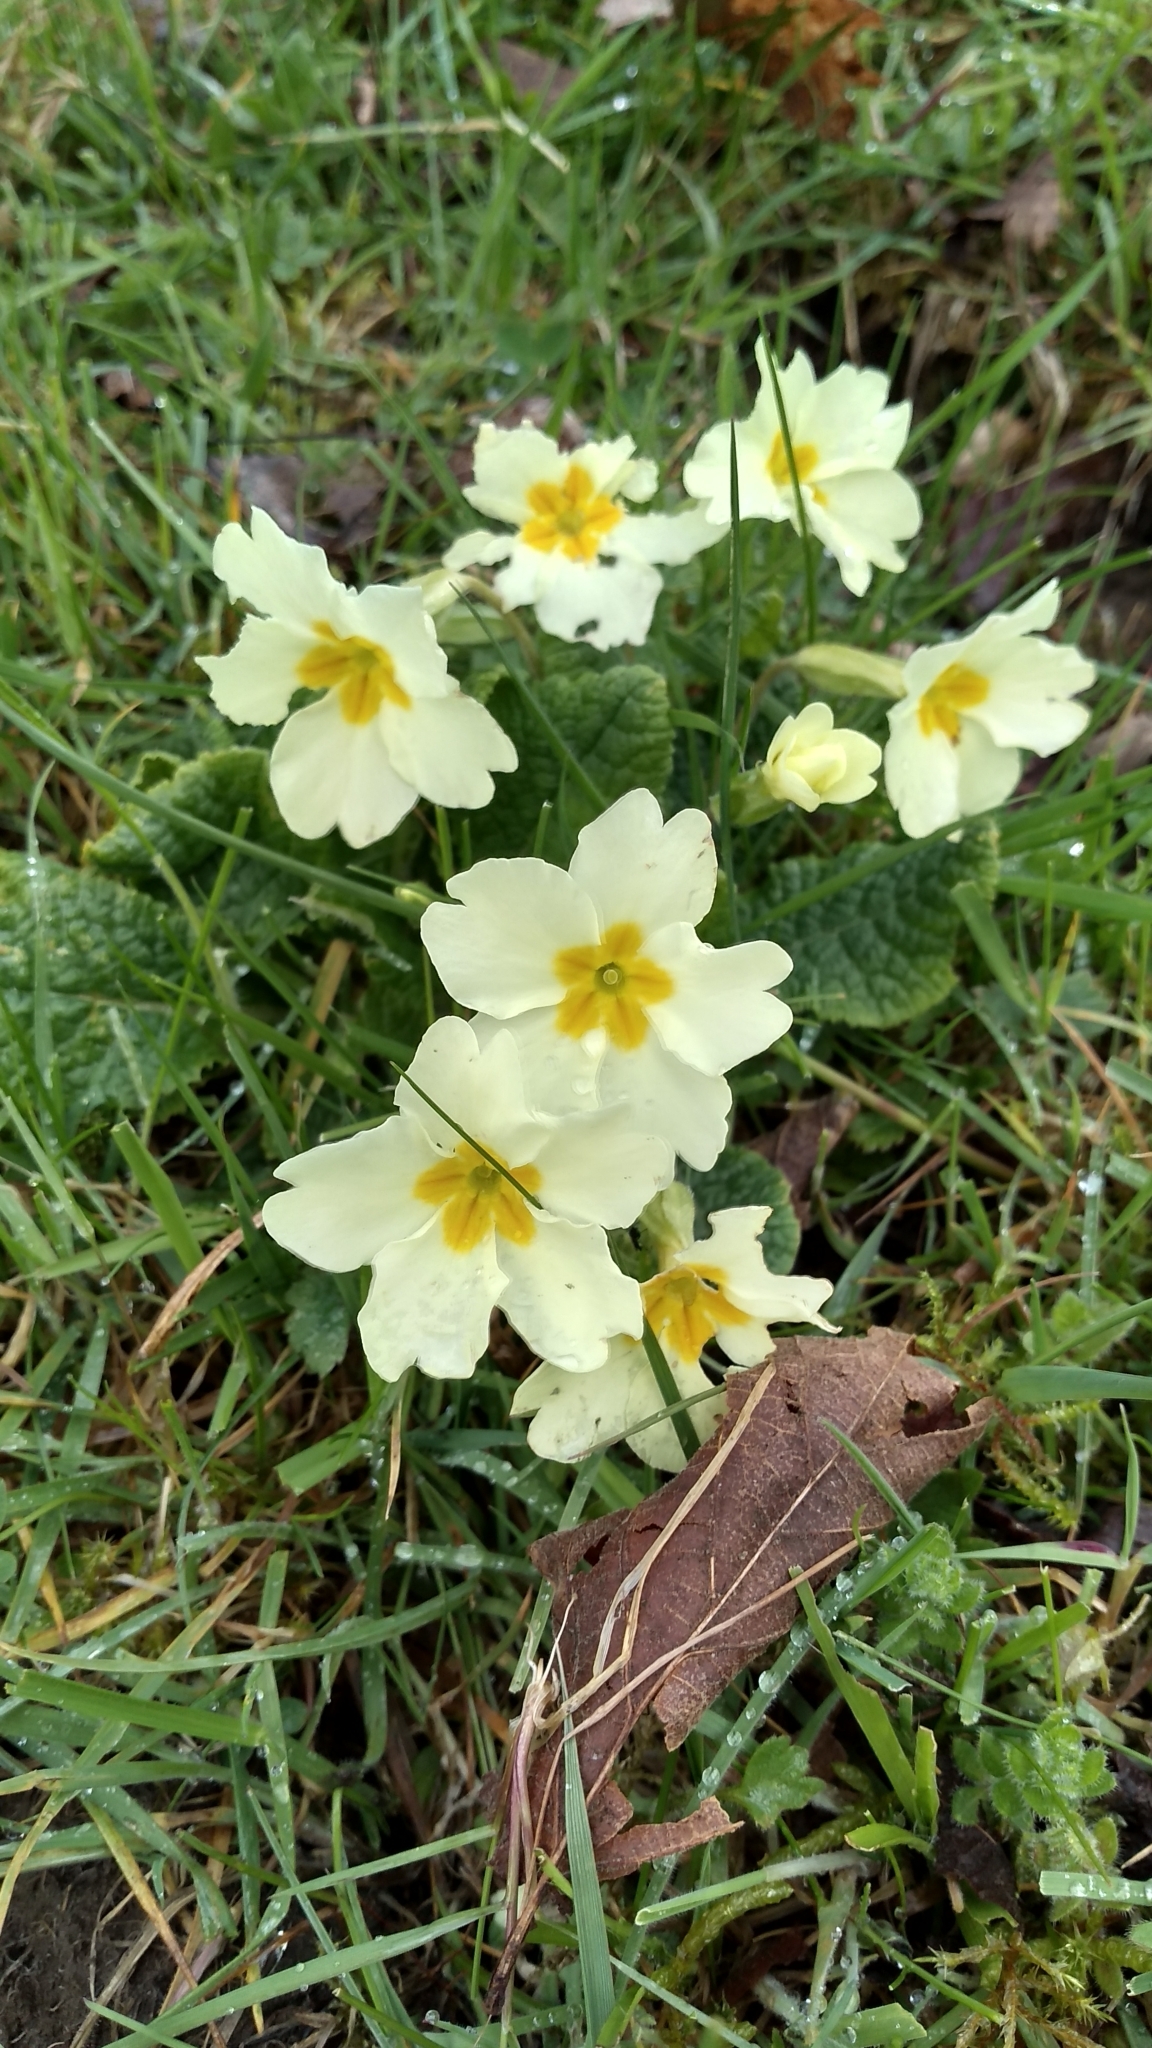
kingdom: Plantae
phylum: Tracheophyta
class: Magnoliopsida
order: Ericales
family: Primulaceae
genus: Primula
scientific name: Primula vulgaris
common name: Primrose
